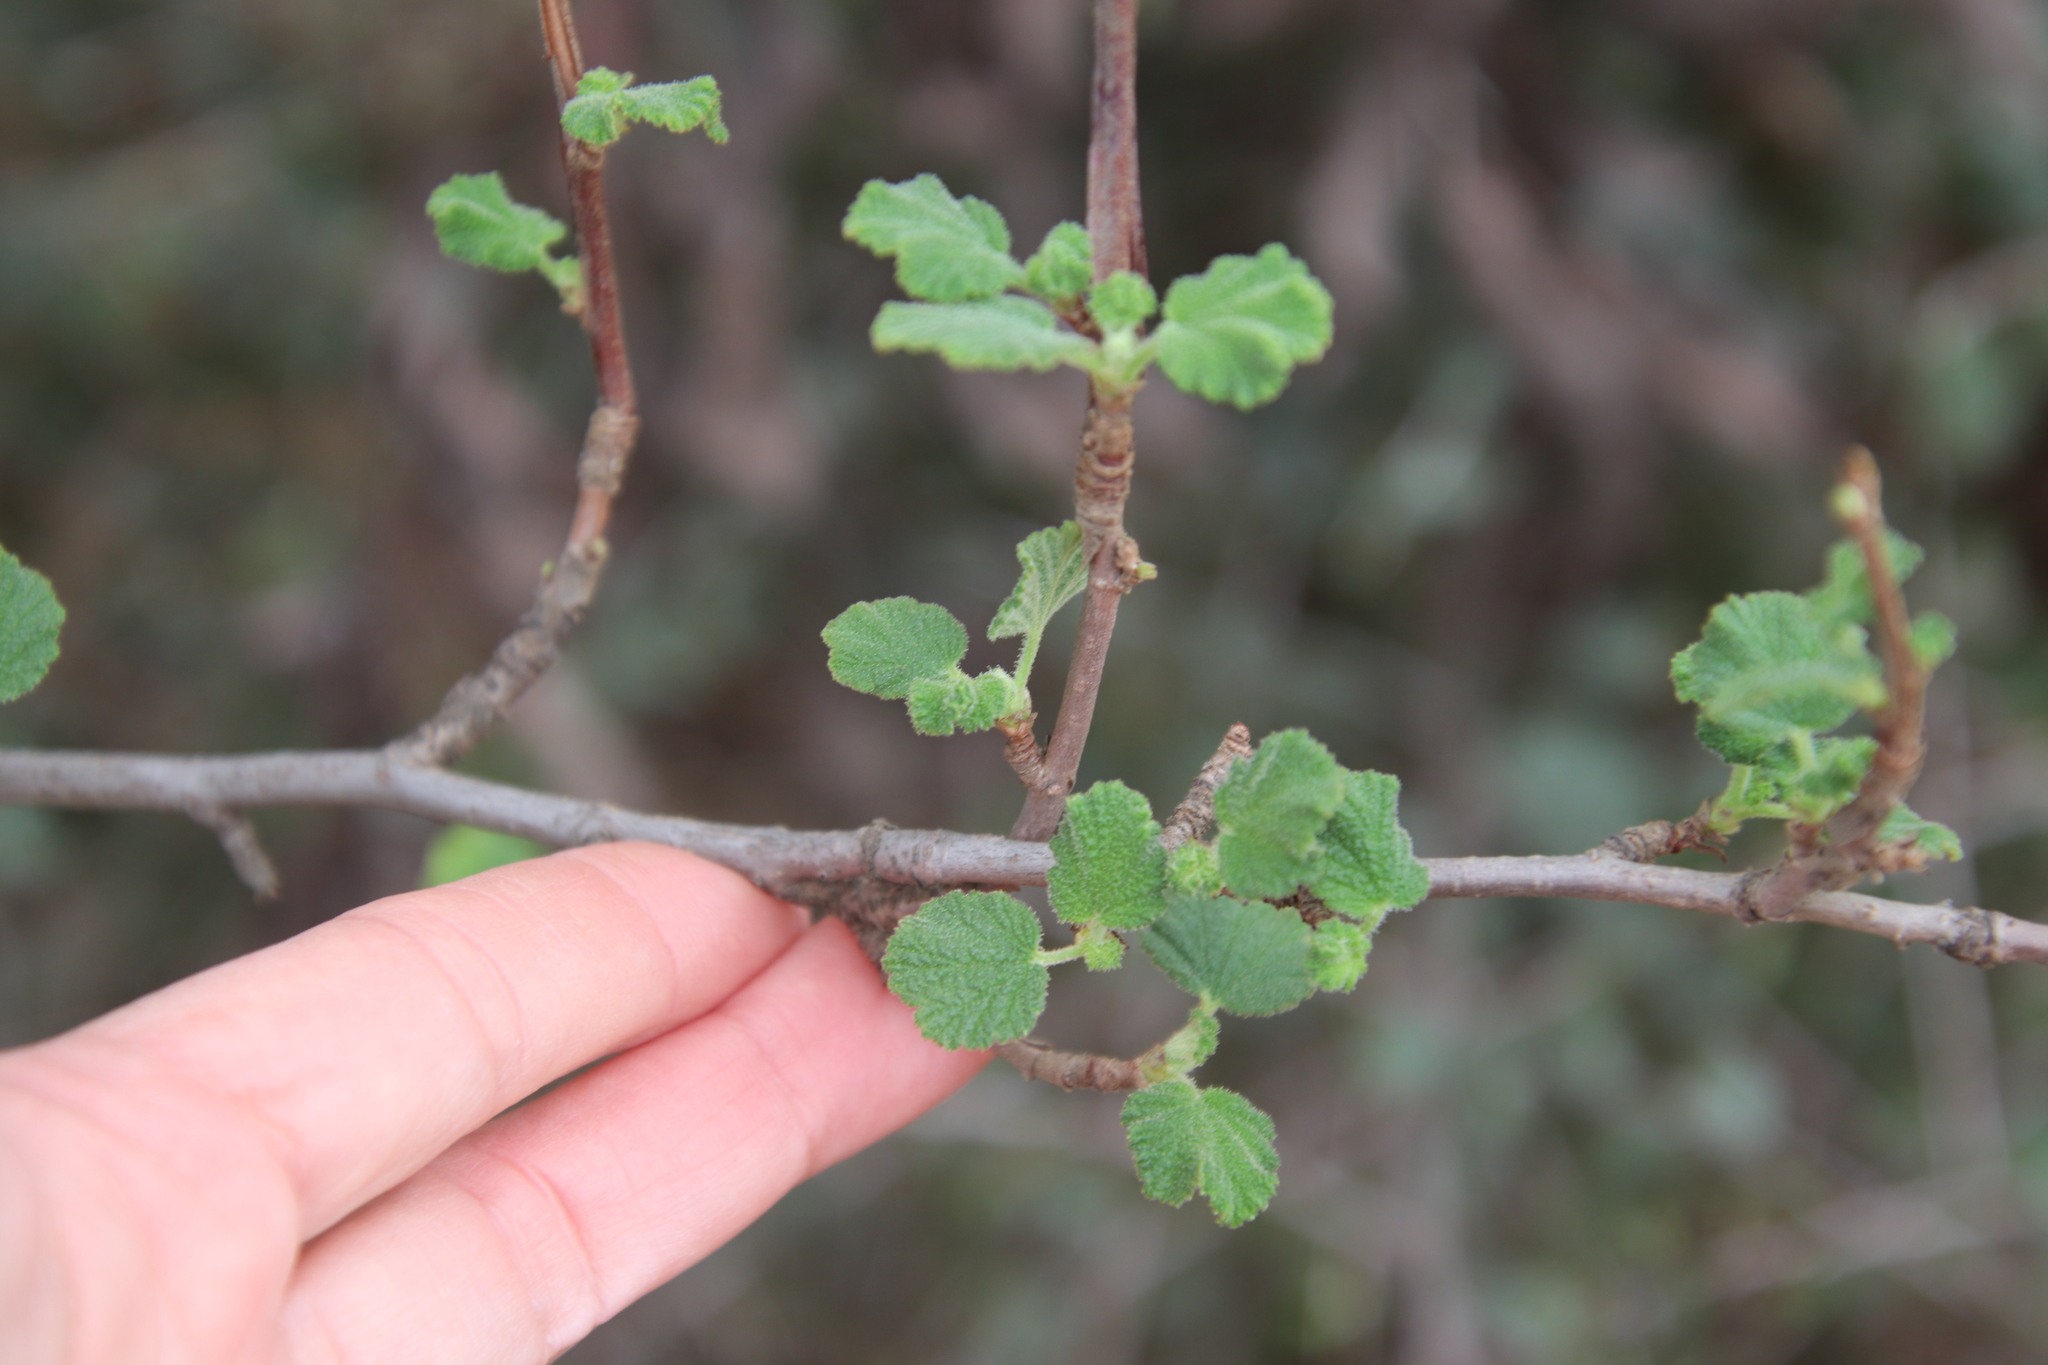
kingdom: Plantae
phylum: Tracheophyta
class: Magnoliopsida
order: Saxifragales
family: Grossulariaceae
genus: Ribes
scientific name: Ribes indecorum
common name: White-flower currant
